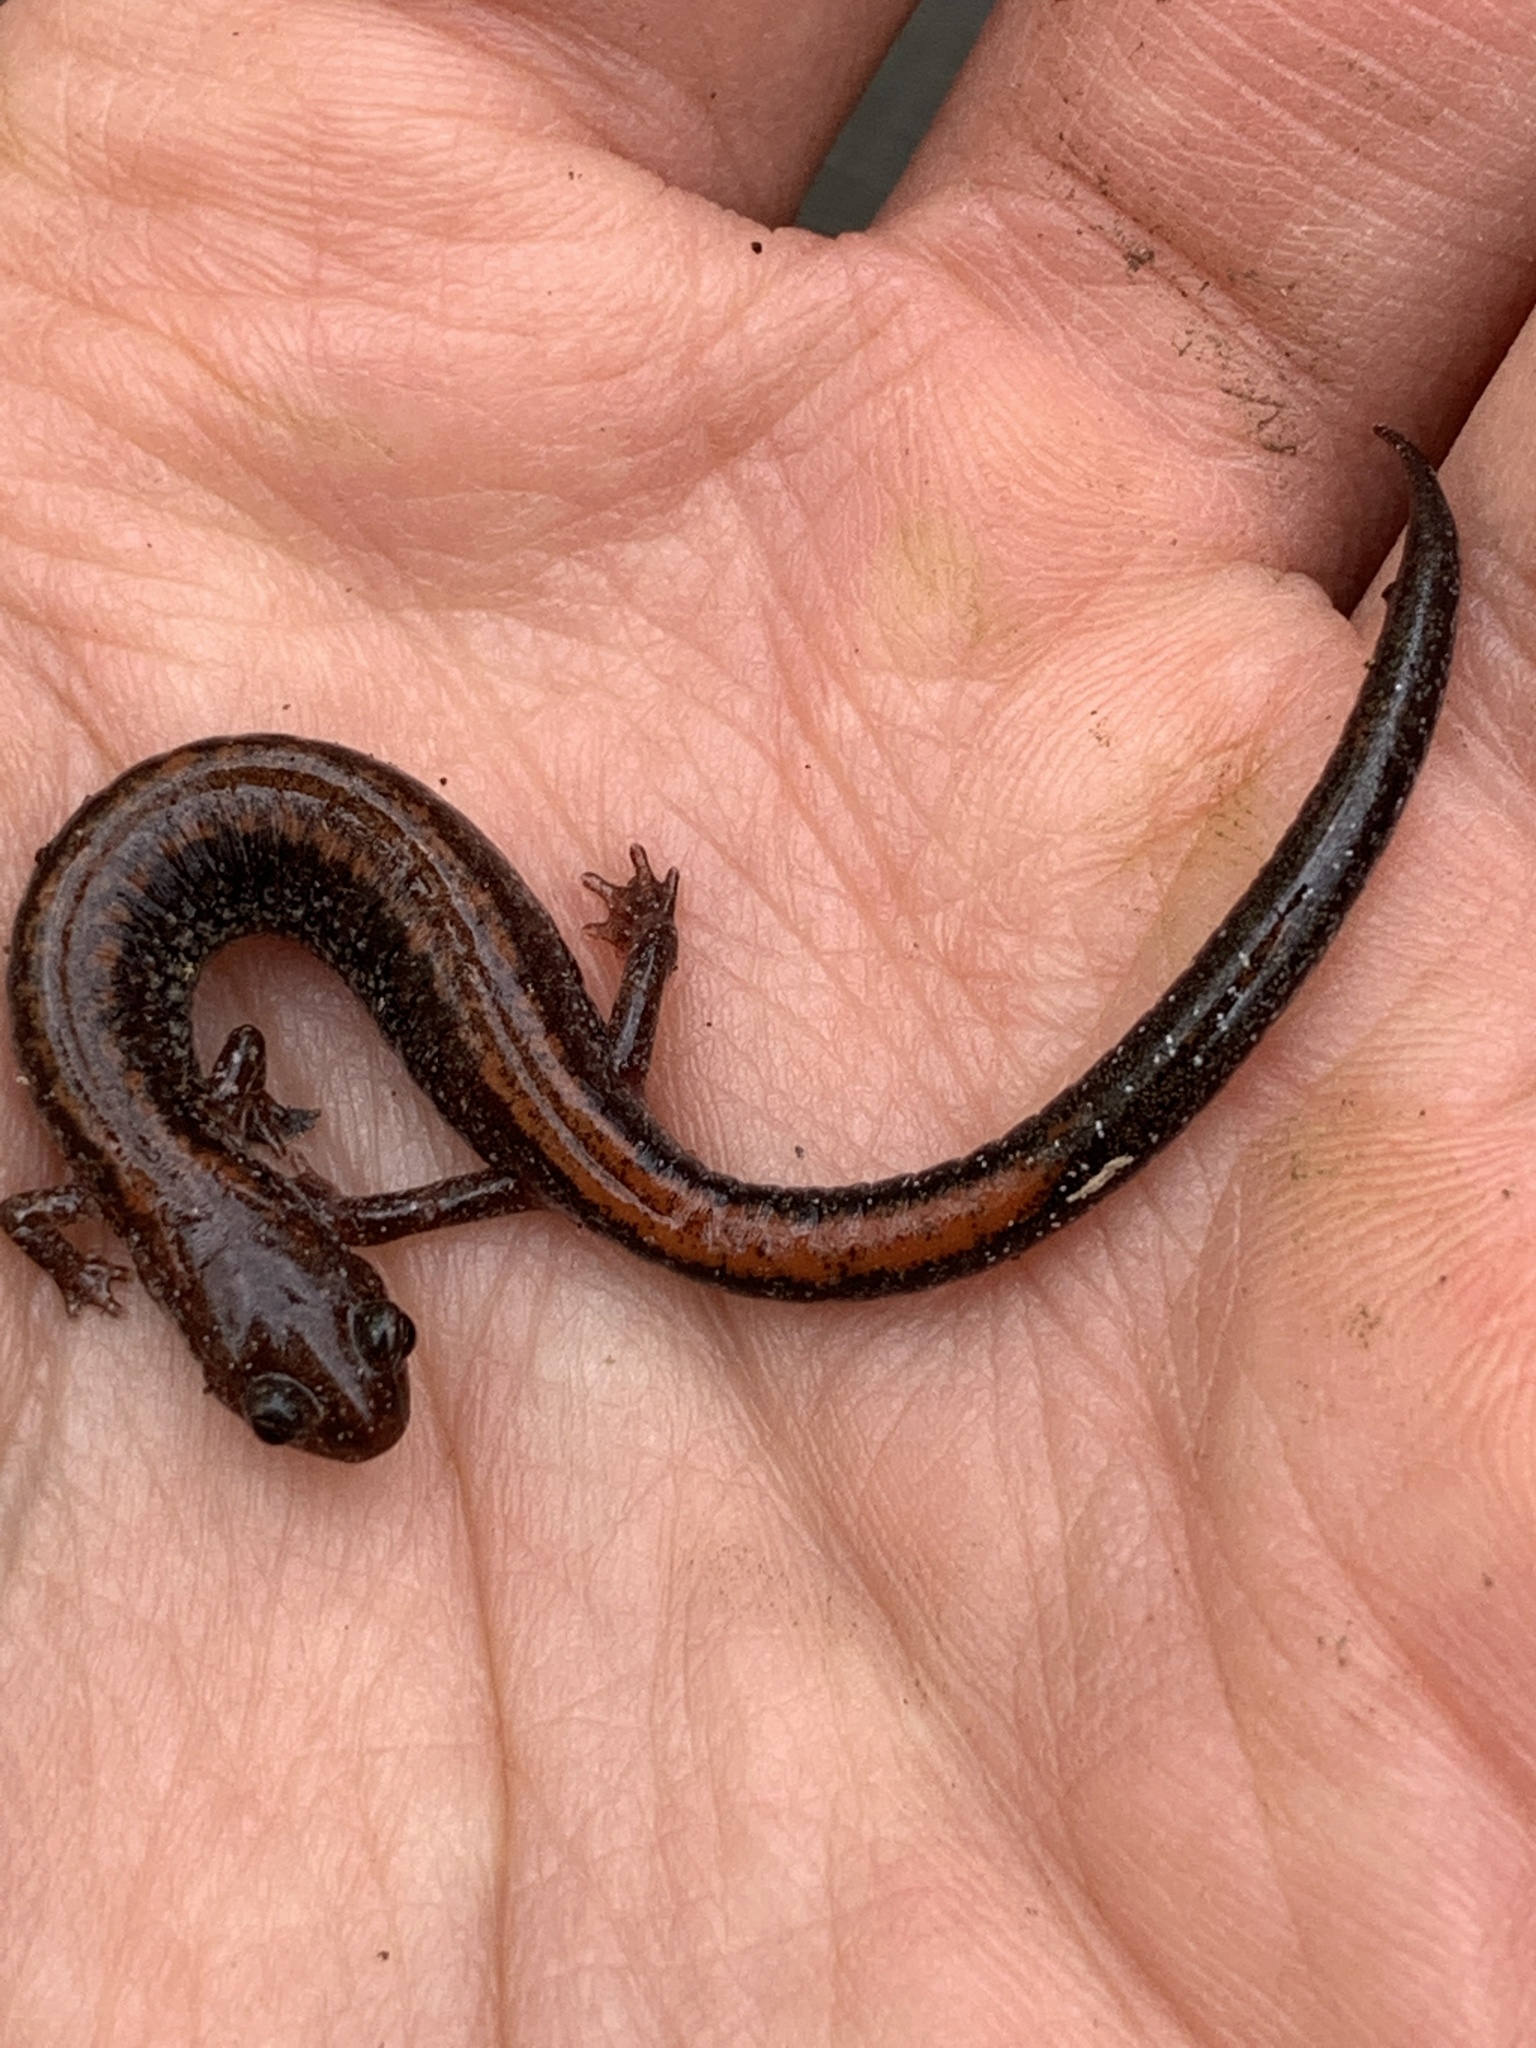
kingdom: Animalia
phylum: Chordata
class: Amphibia
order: Caudata
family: Plethodontidae
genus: Plethodon
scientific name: Plethodon cinereus
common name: Redback salamander
